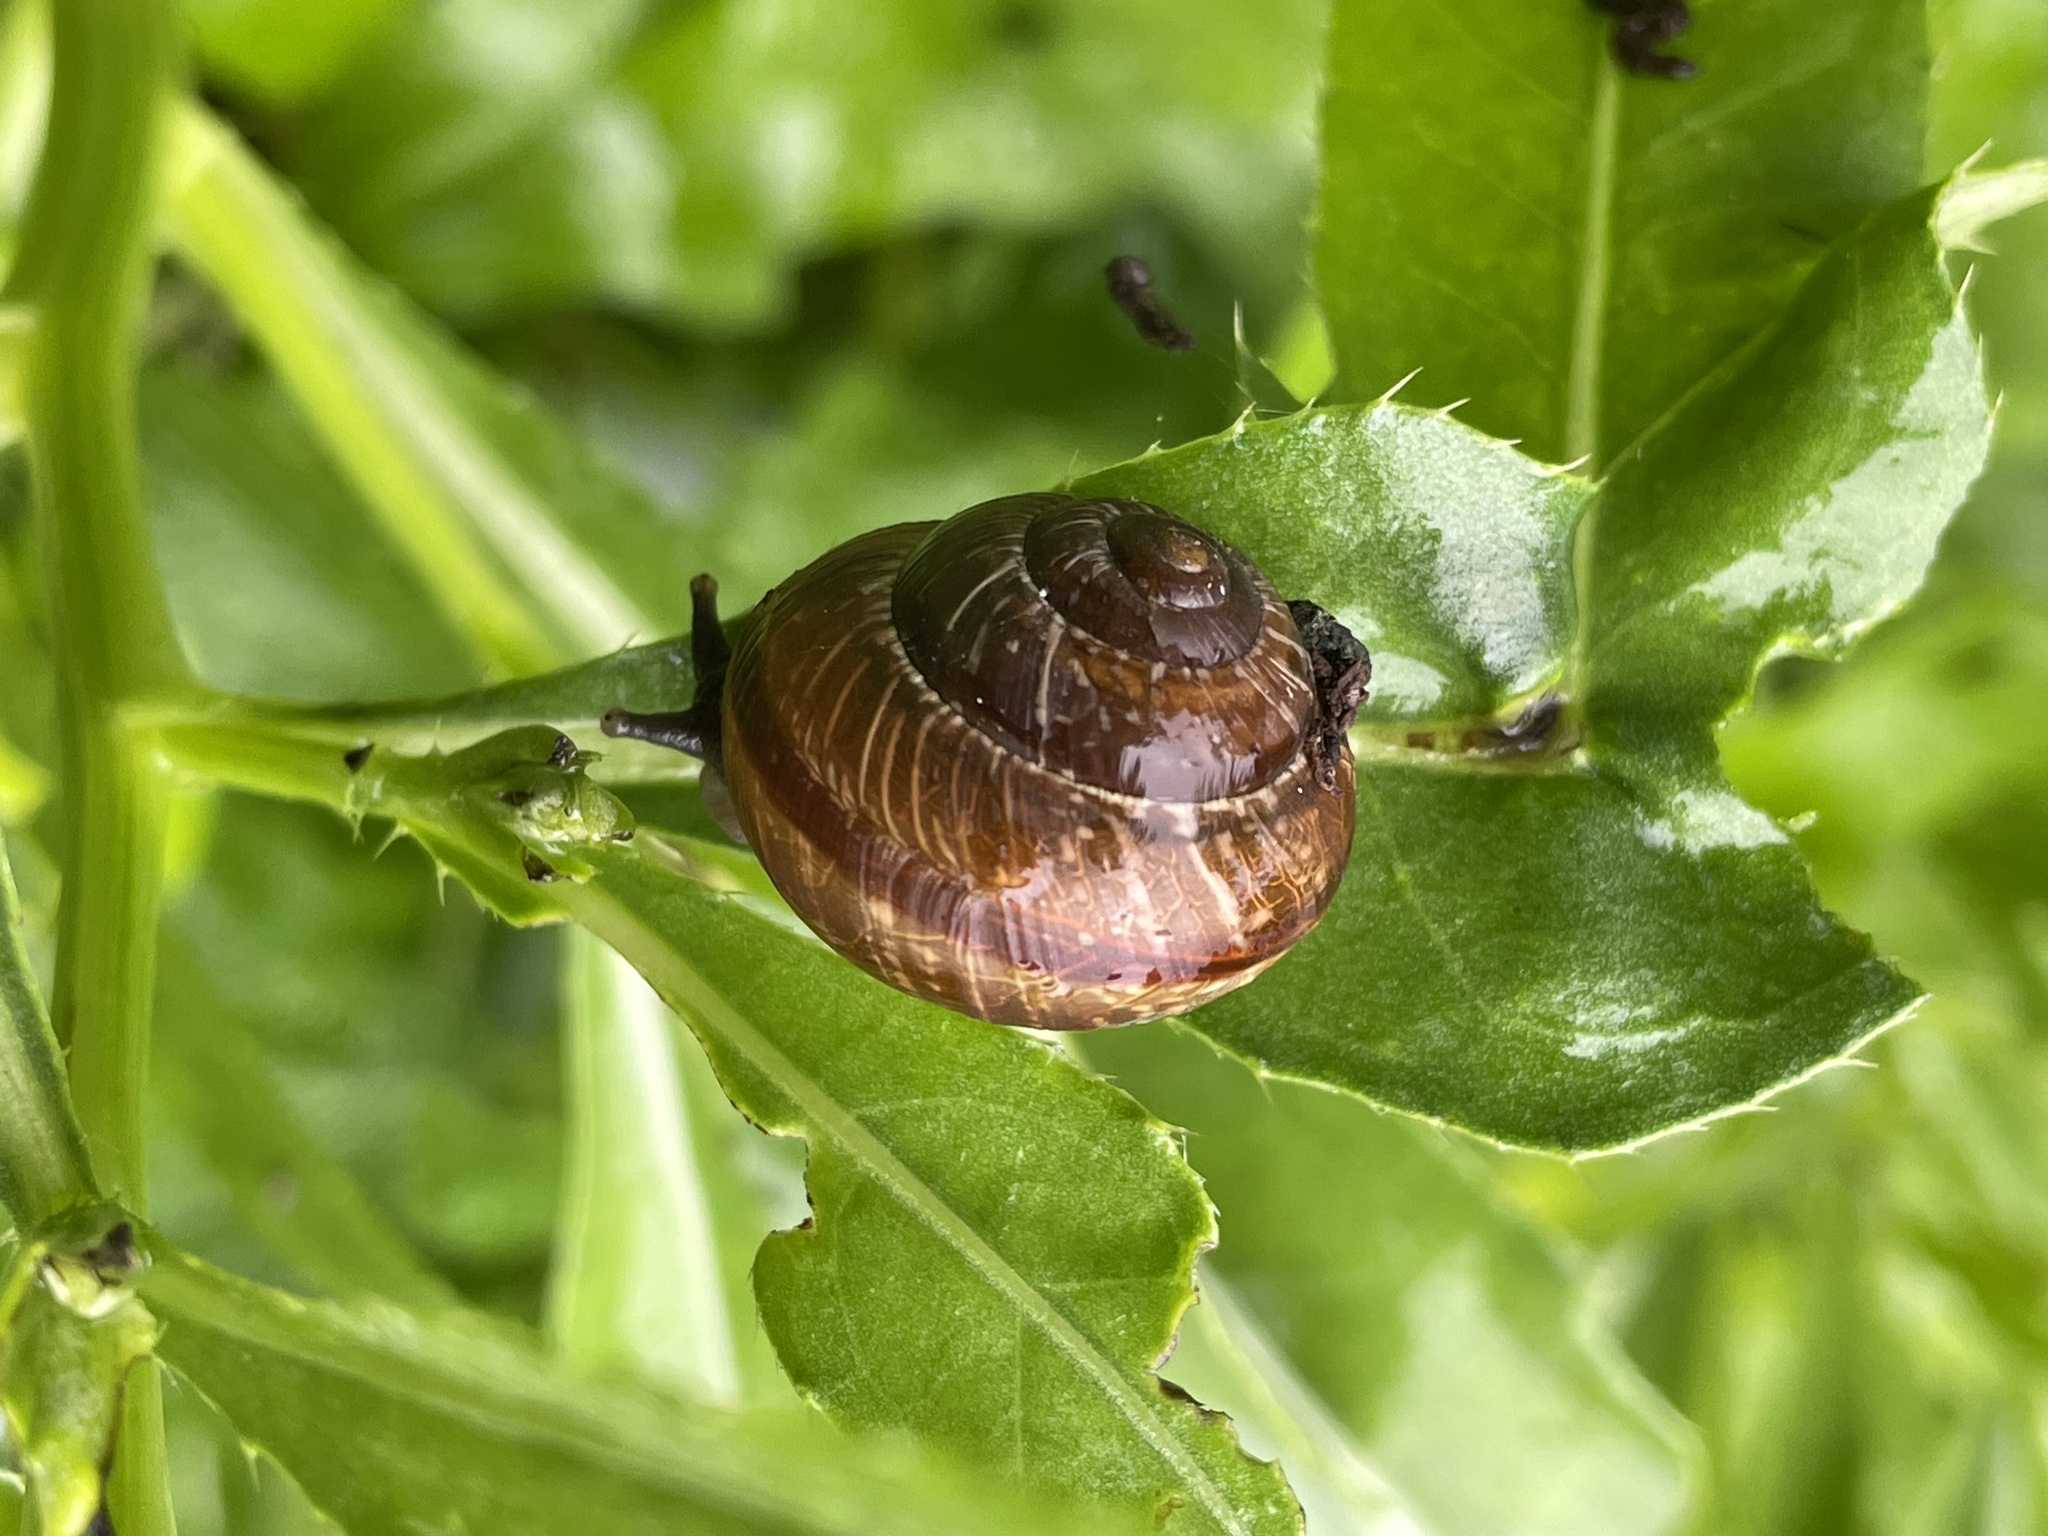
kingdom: Animalia
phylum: Mollusca
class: Gastropoda
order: Stylommatophora
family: Helicidae
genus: Arianta
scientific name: Arianta arbustorum
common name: Copse snail
